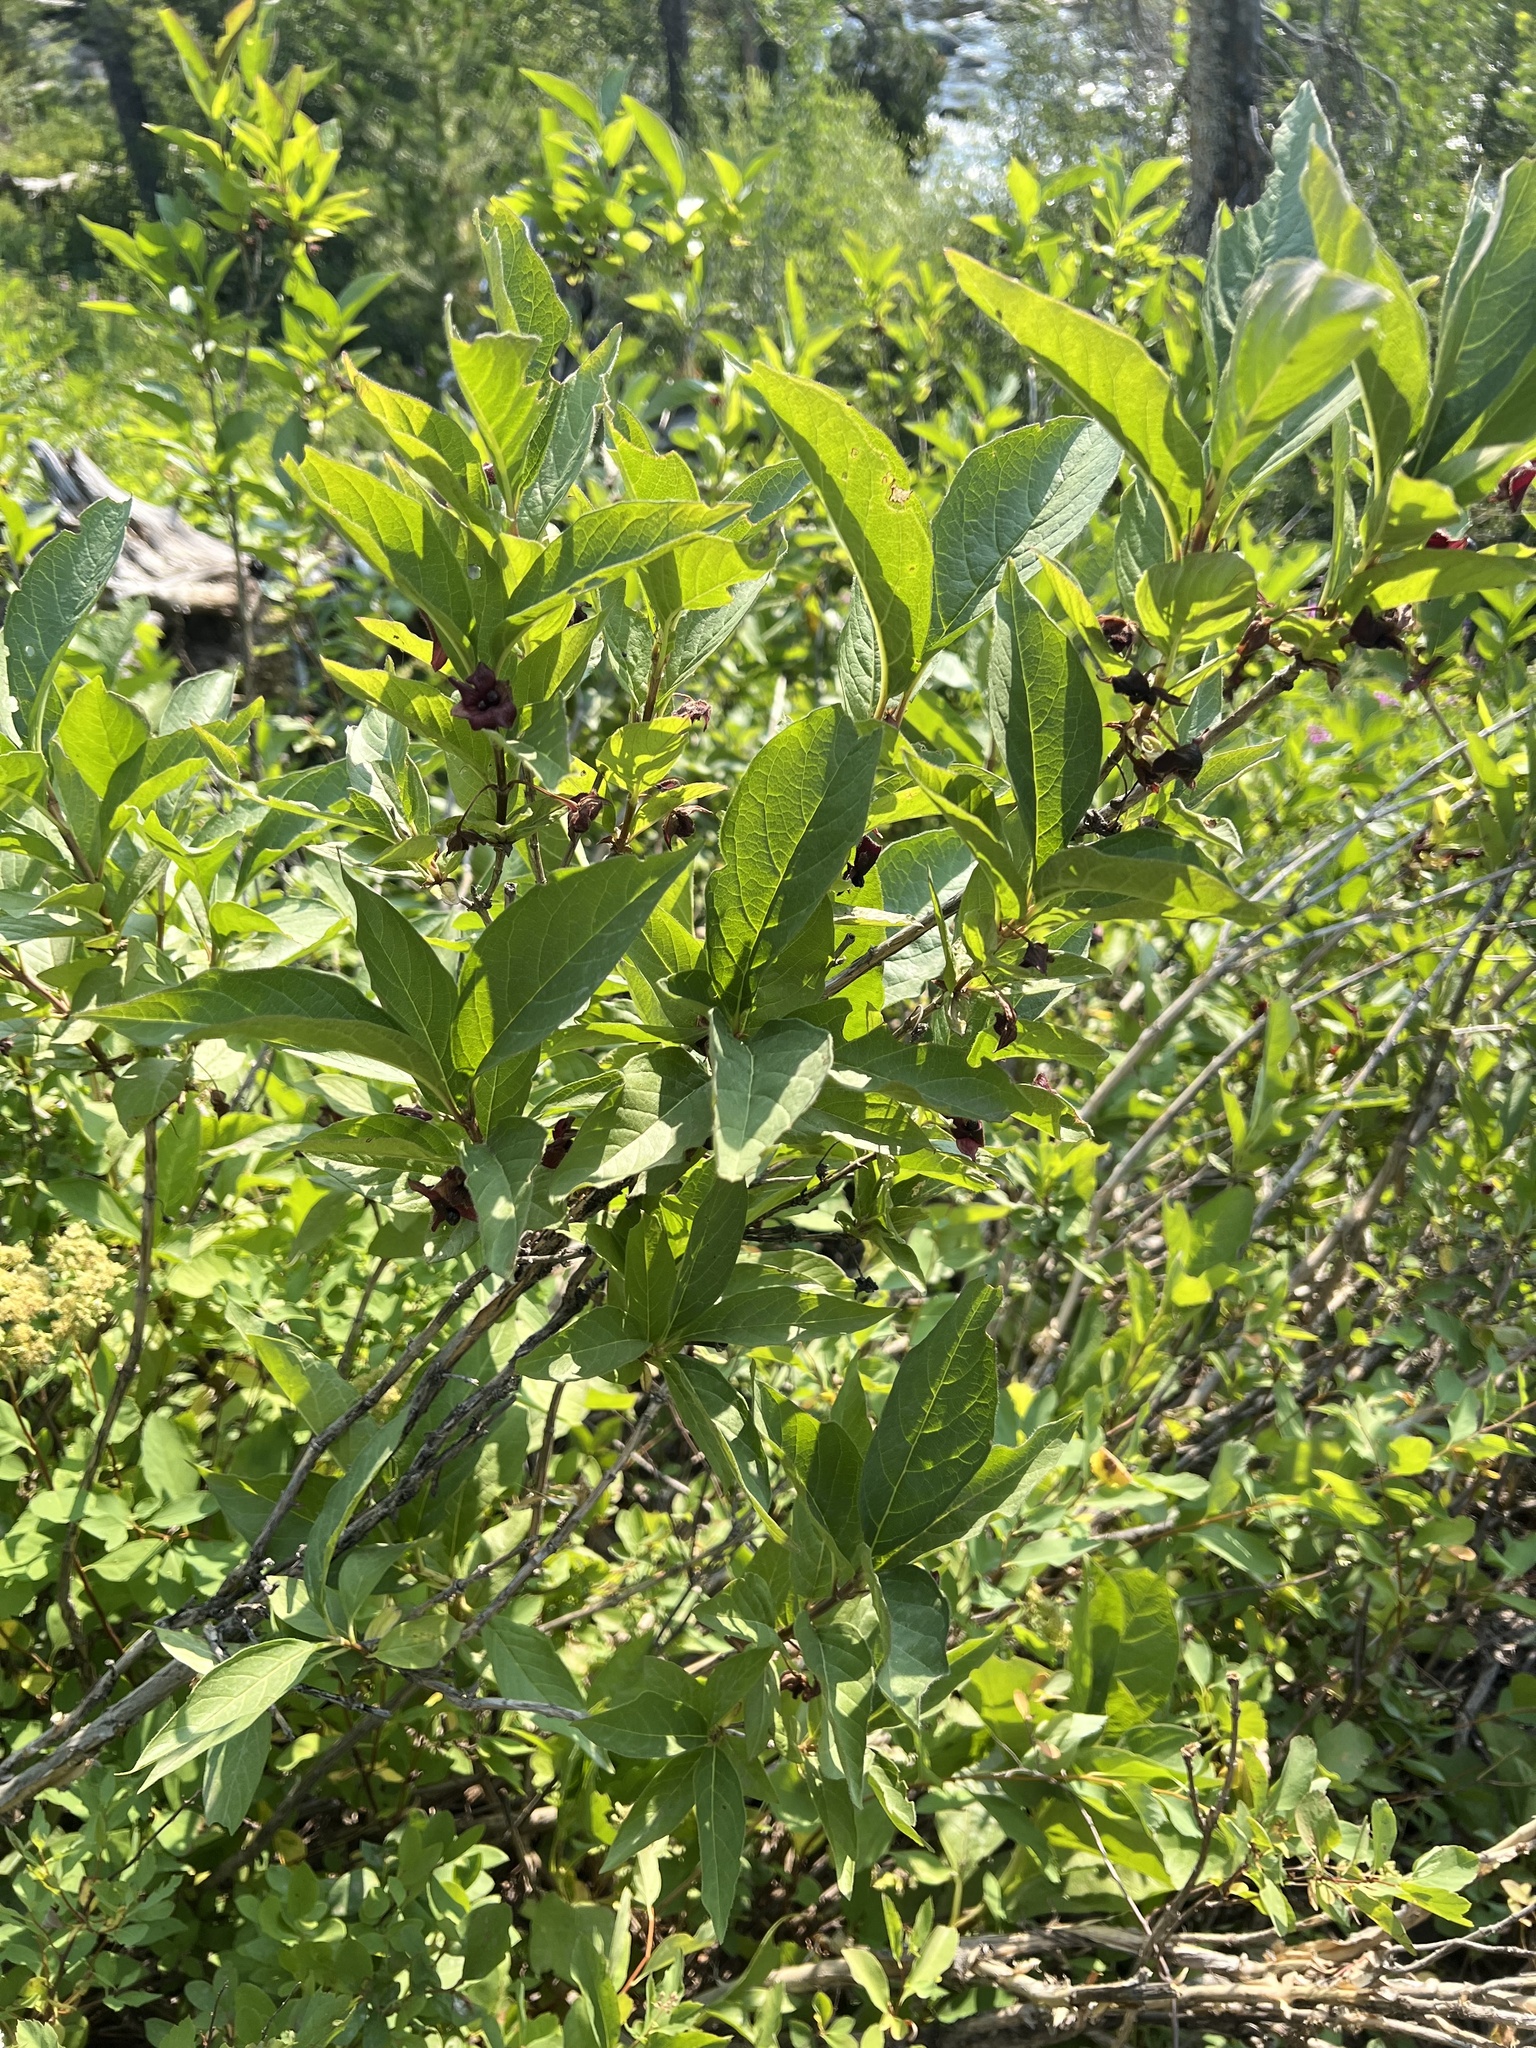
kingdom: Plantae
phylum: Tracheophyta
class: Magnoliopsida
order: Dipsacales
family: Caprifoliaceae
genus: Lonicera
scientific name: Lonicera involucrata
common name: Californian honeysuckle
